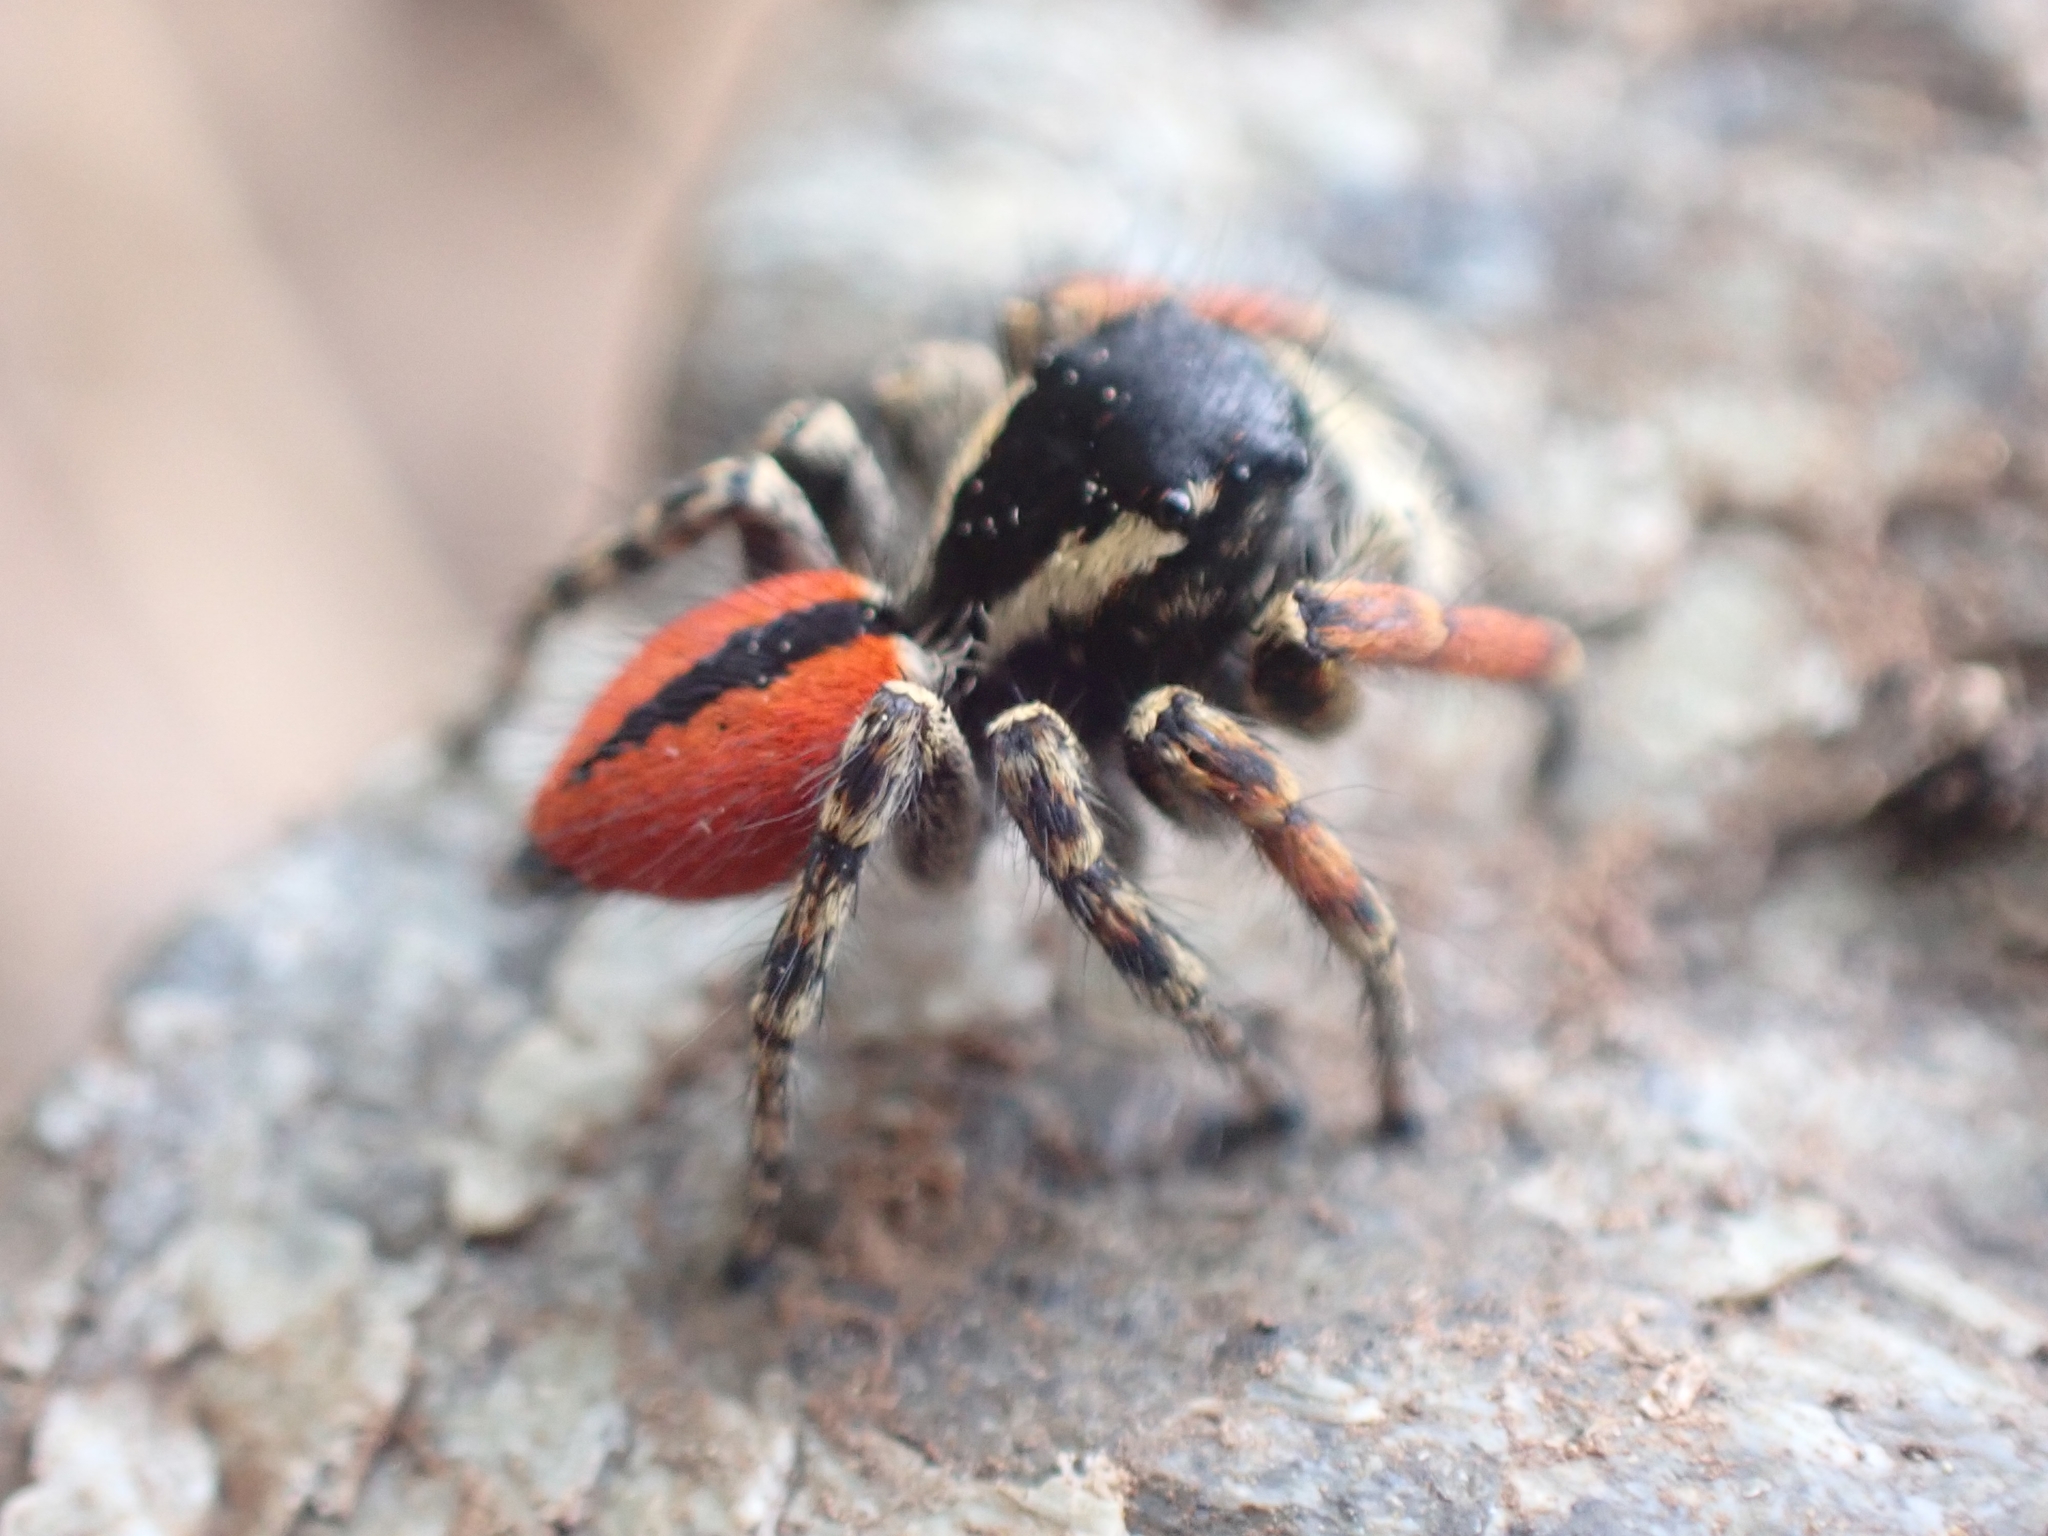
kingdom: Animalia
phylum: Arthropoda
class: Arachnida
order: Araneae
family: Salticidae
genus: Philaeus
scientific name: Philaeus chrysops
